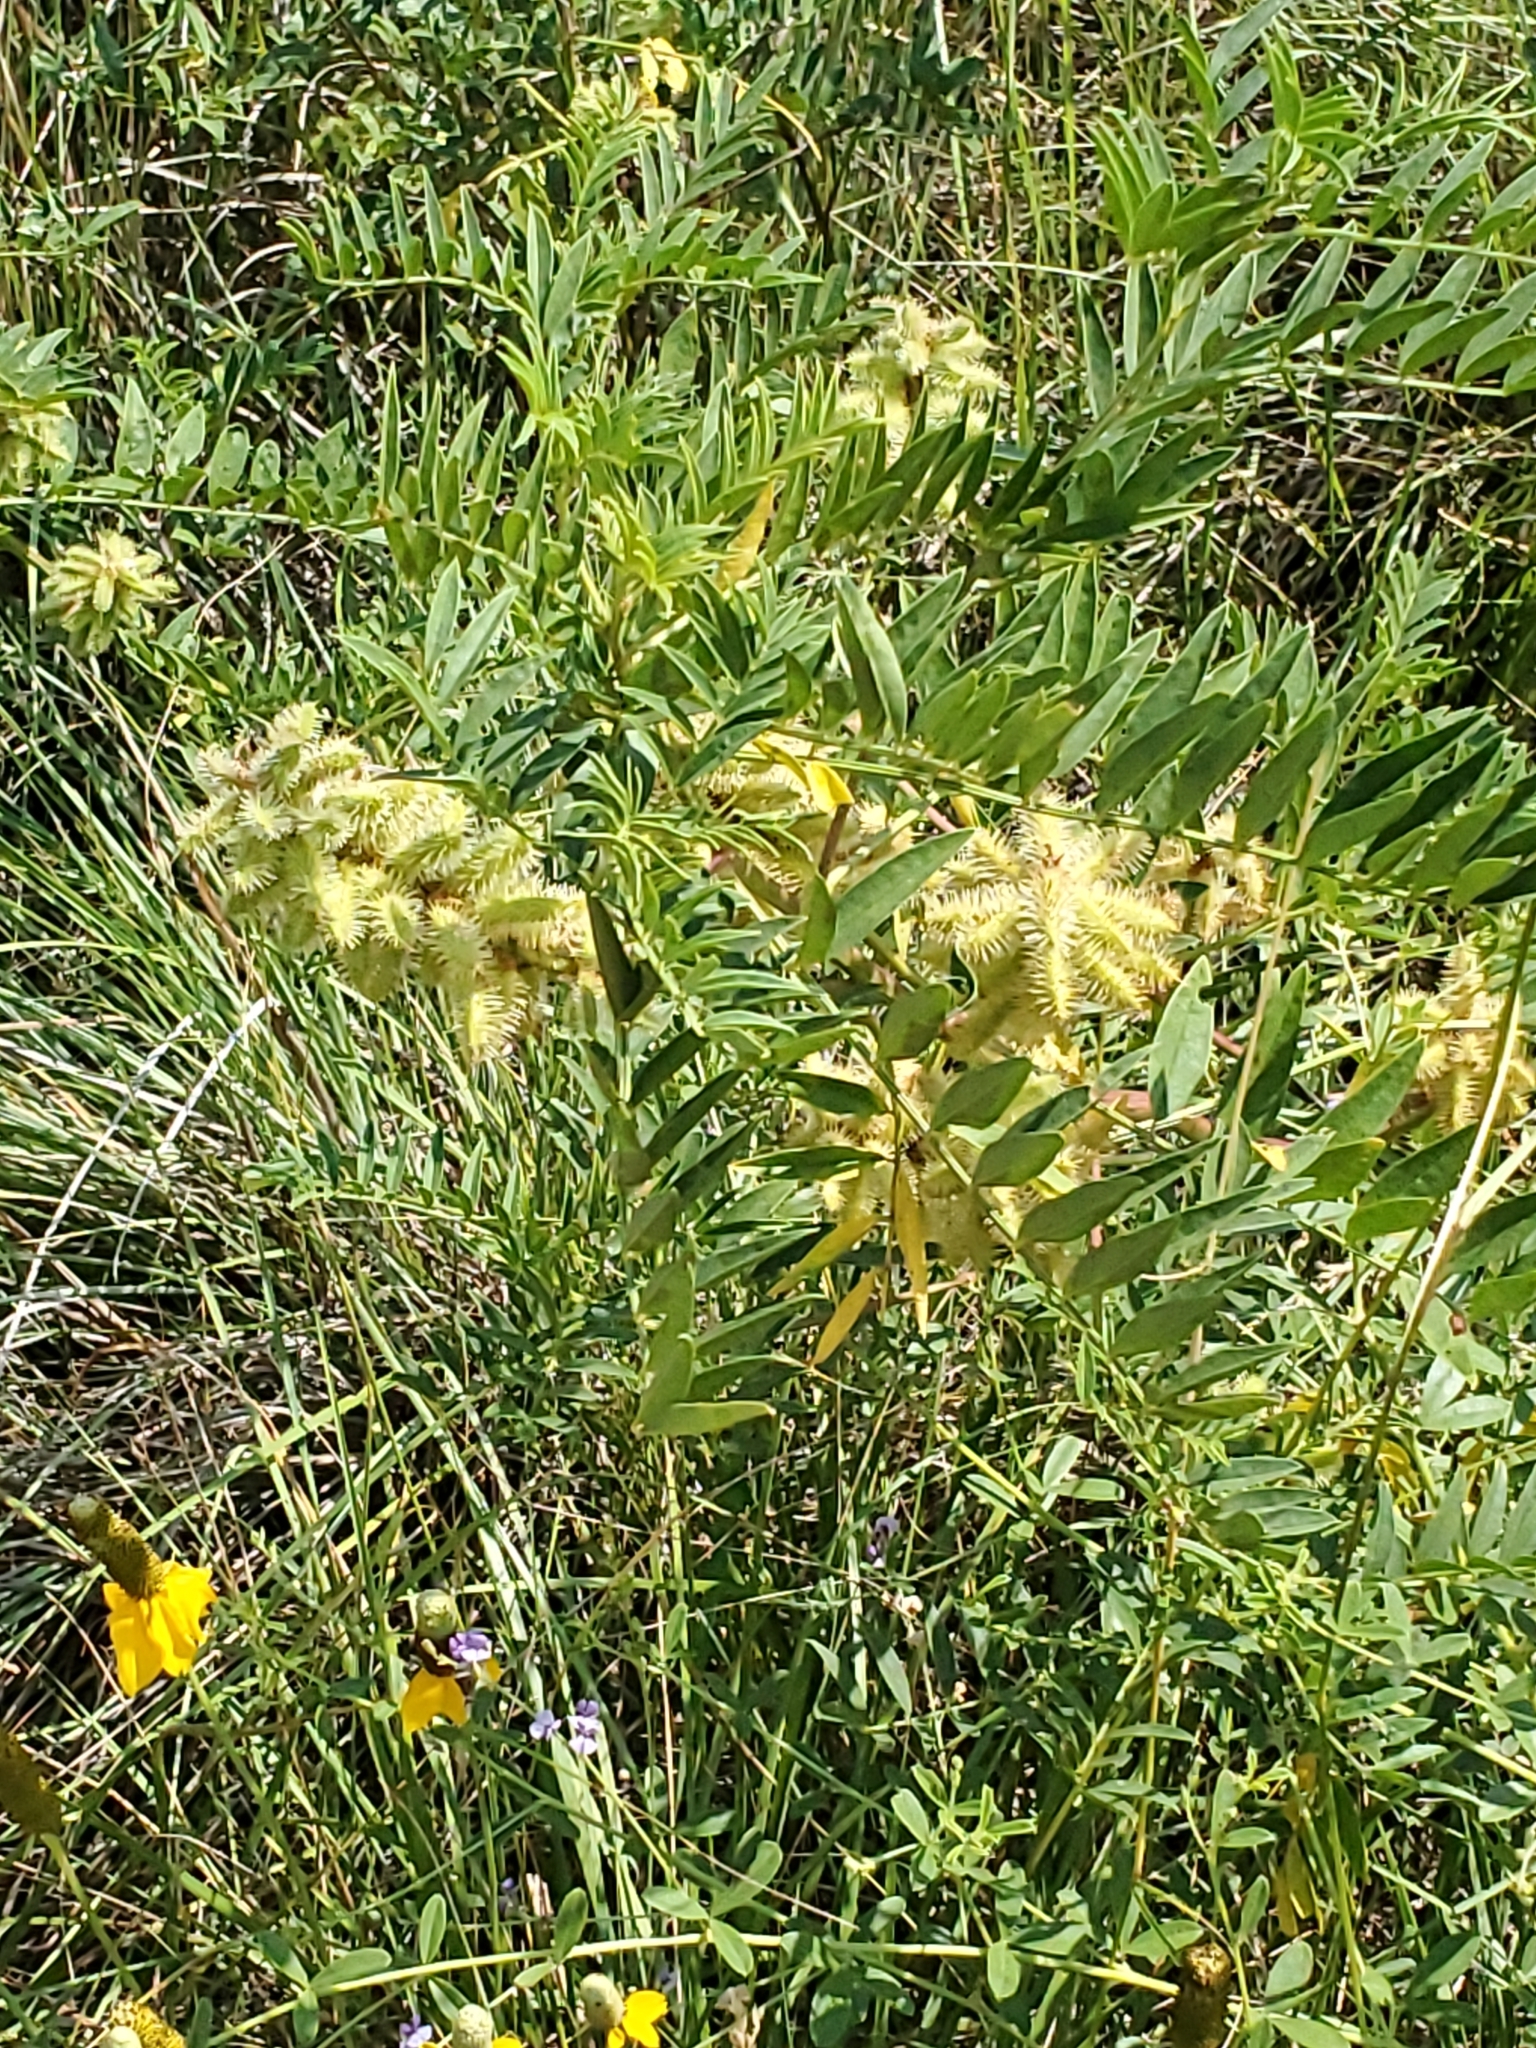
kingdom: Plantae
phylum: Tracheophyta
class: Magnoliopsida
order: Fabales
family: Fabaceae
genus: Glycyrrhiza
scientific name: Glycyrrhiza lepidota
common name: American liquorice
